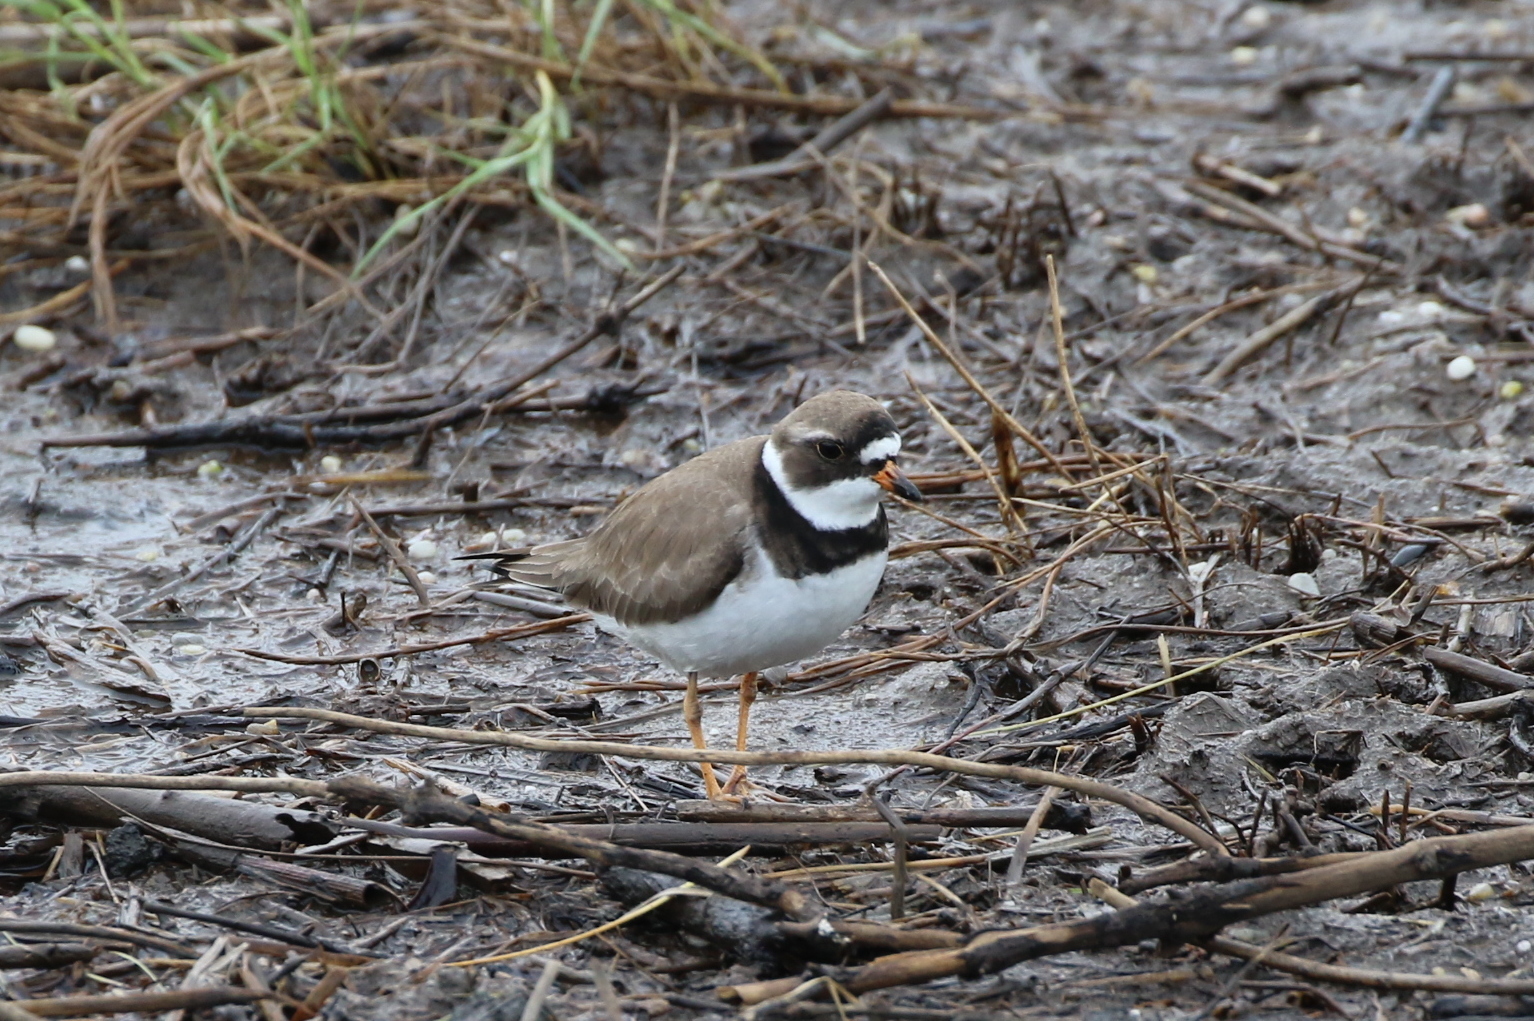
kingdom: Animalia
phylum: Chordata
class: Aves
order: Charadriiformes
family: Charadriidae
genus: Charadrius
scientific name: Charadrius semipalmatus
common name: Semipalmated plover
